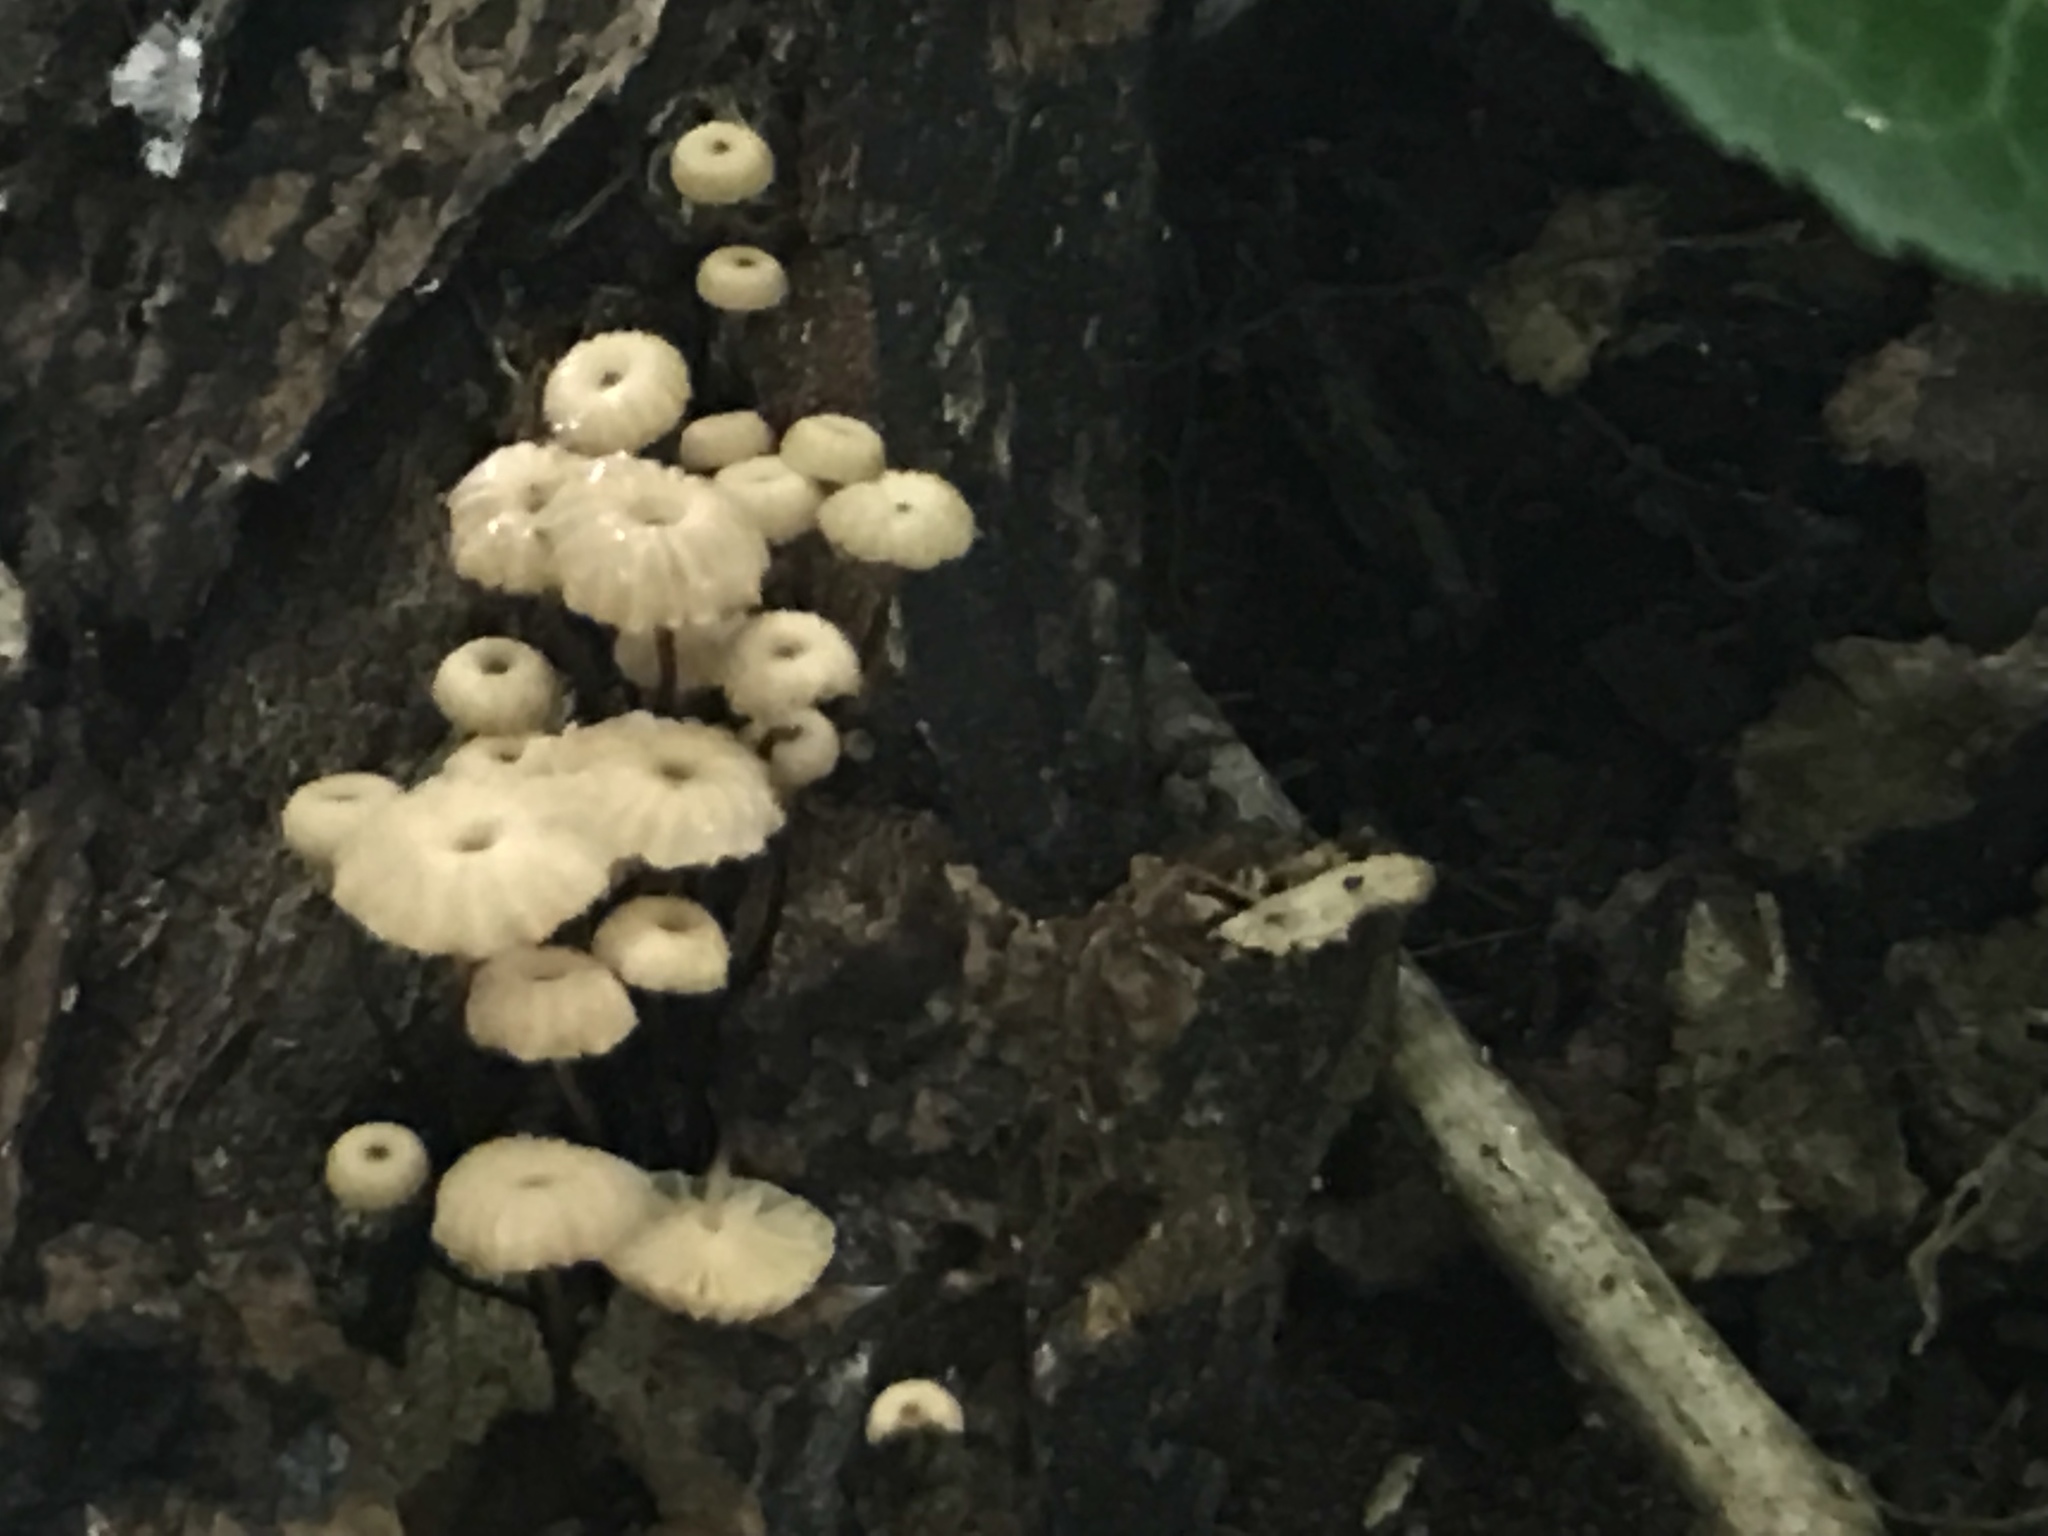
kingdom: Fungi
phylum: Basidiomycota
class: Agaricomycetes
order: Agaricales
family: Marasmiaceae
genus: Marasmius
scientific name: Marasmius rotula
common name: Collared parachute
